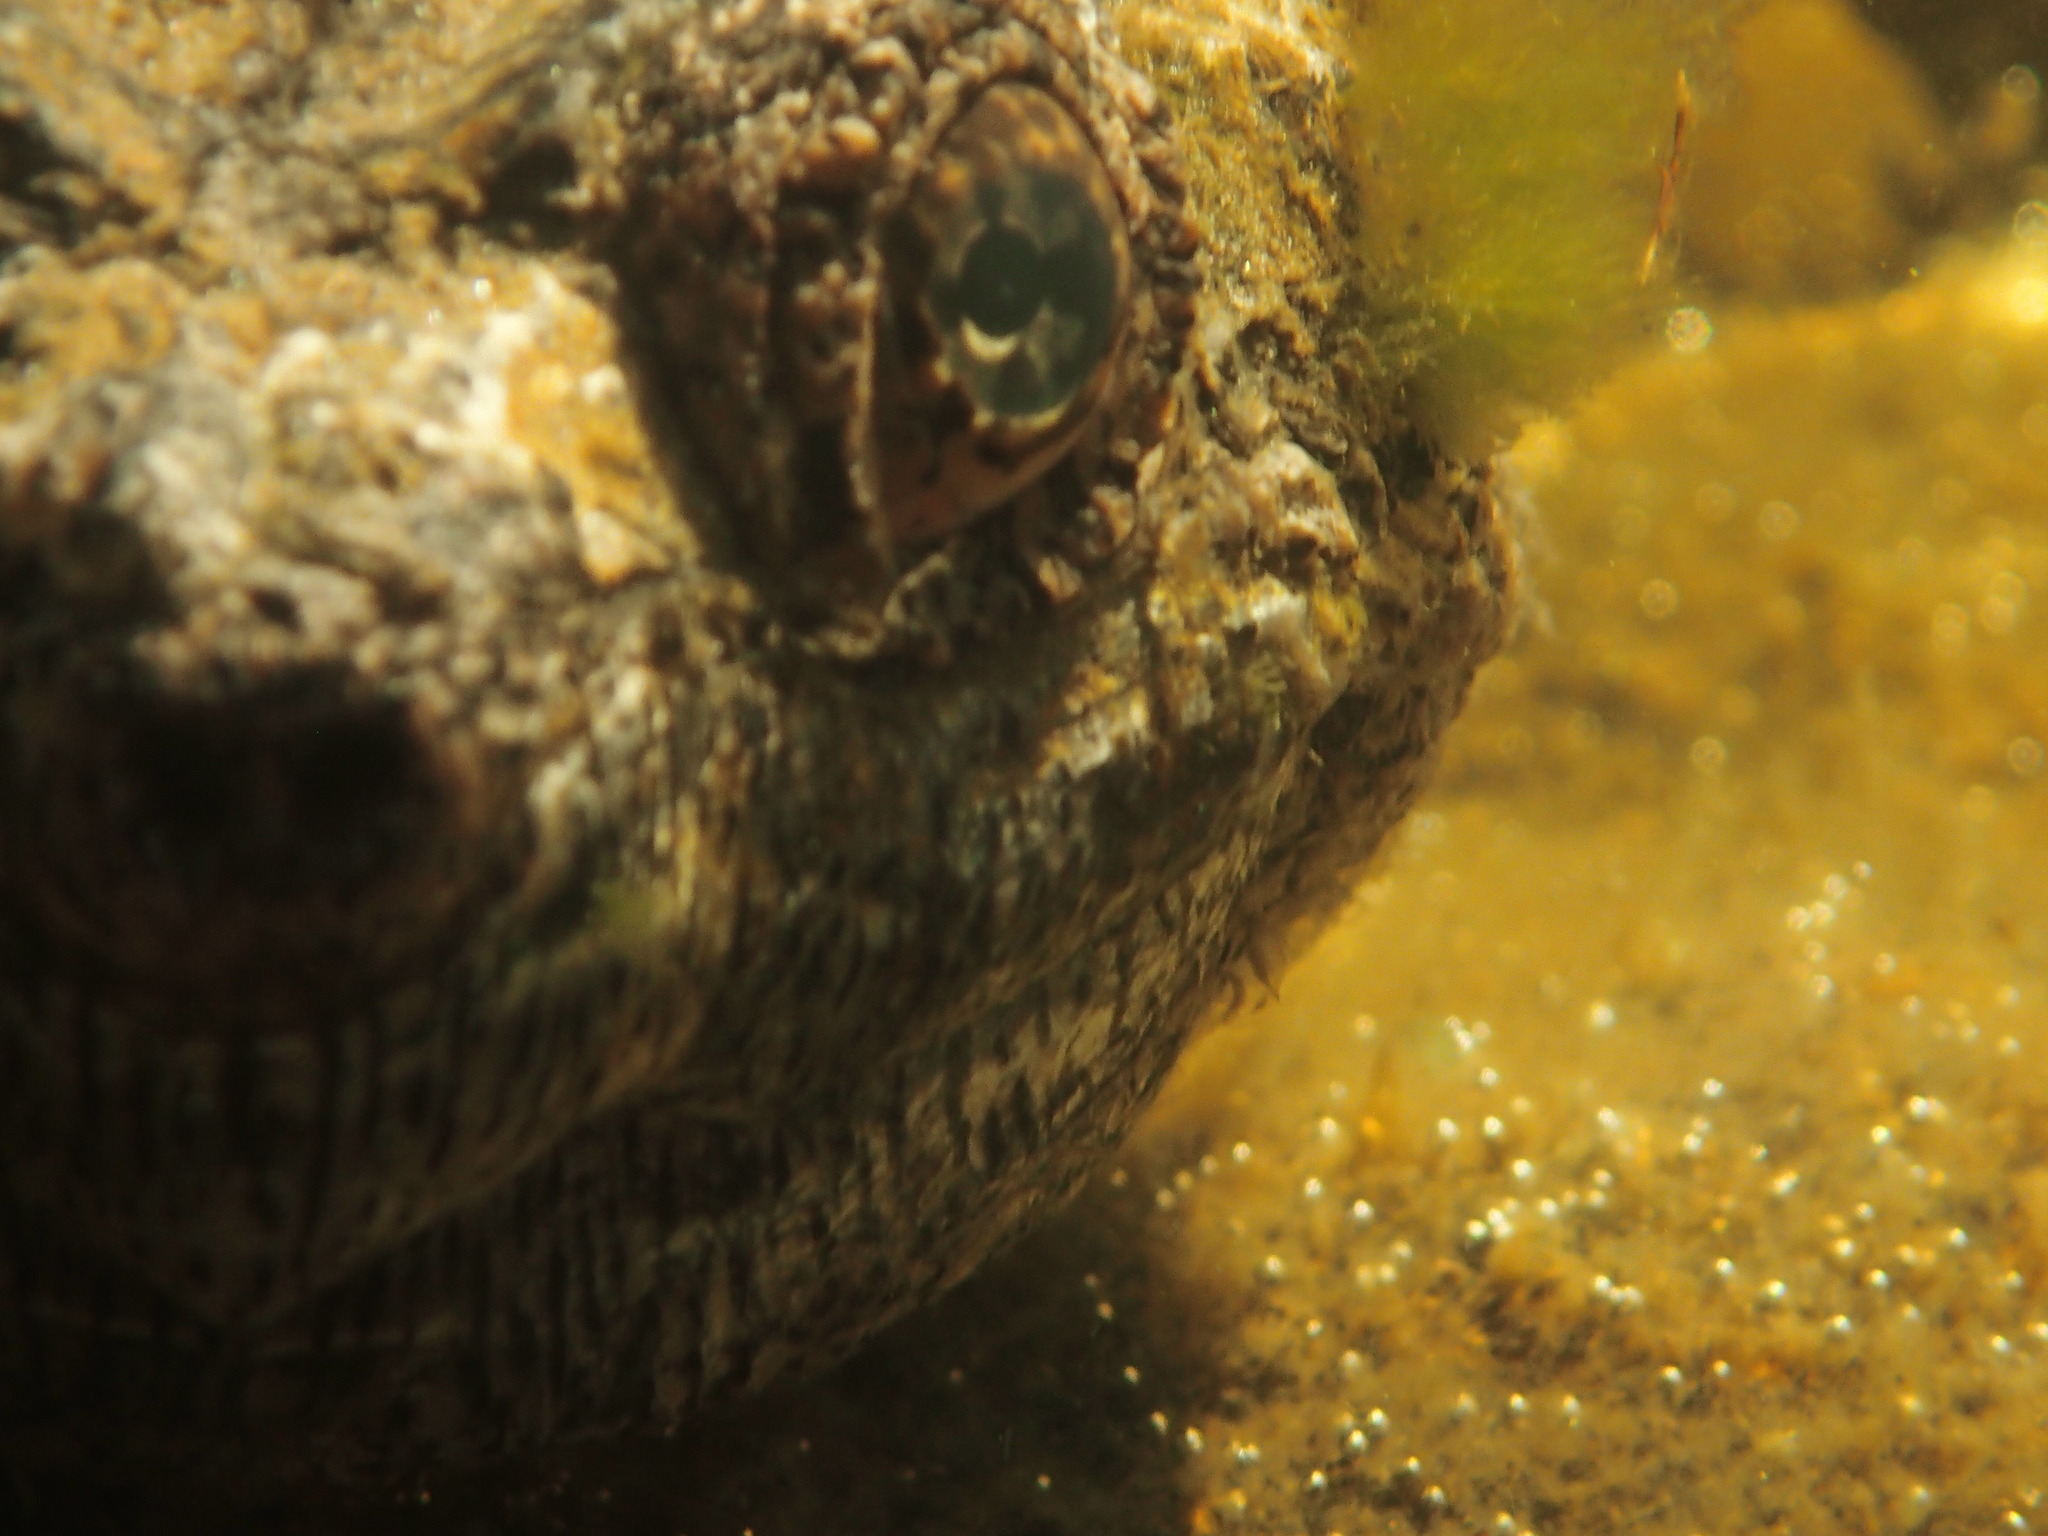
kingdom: Animalia
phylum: Chordata
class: Testudines
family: Chelydridae
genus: Chelydra
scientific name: Chelydra serpentina
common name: Common snapping turtle
